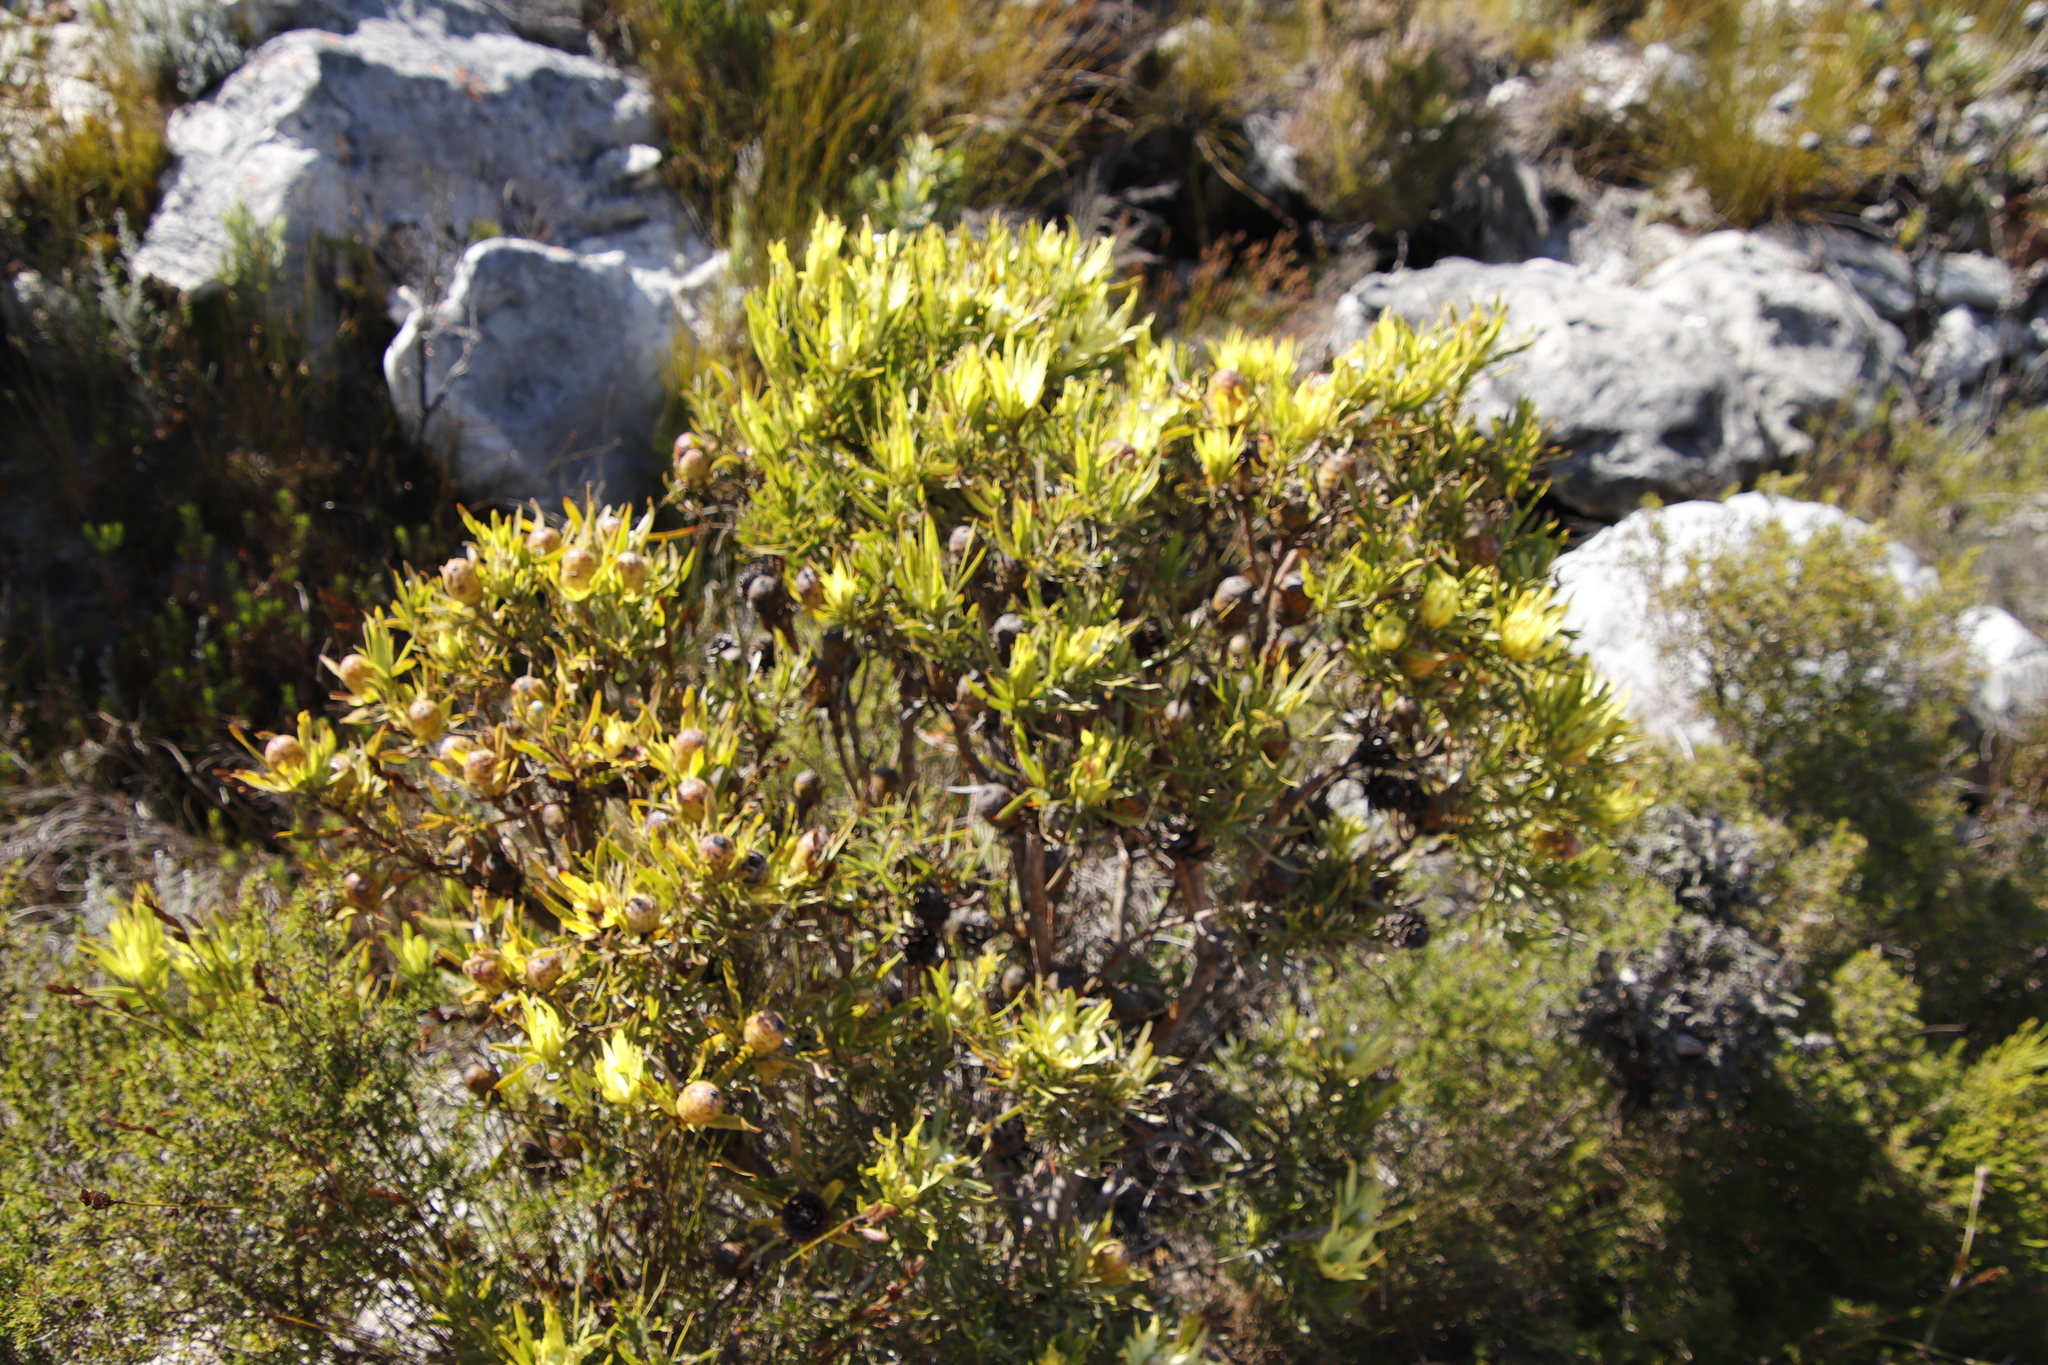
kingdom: Plantae
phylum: Tracheophyta
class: Magnoliopsida
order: Proteales
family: Proteaceae
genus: Leucadendron
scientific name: Leucadendron
